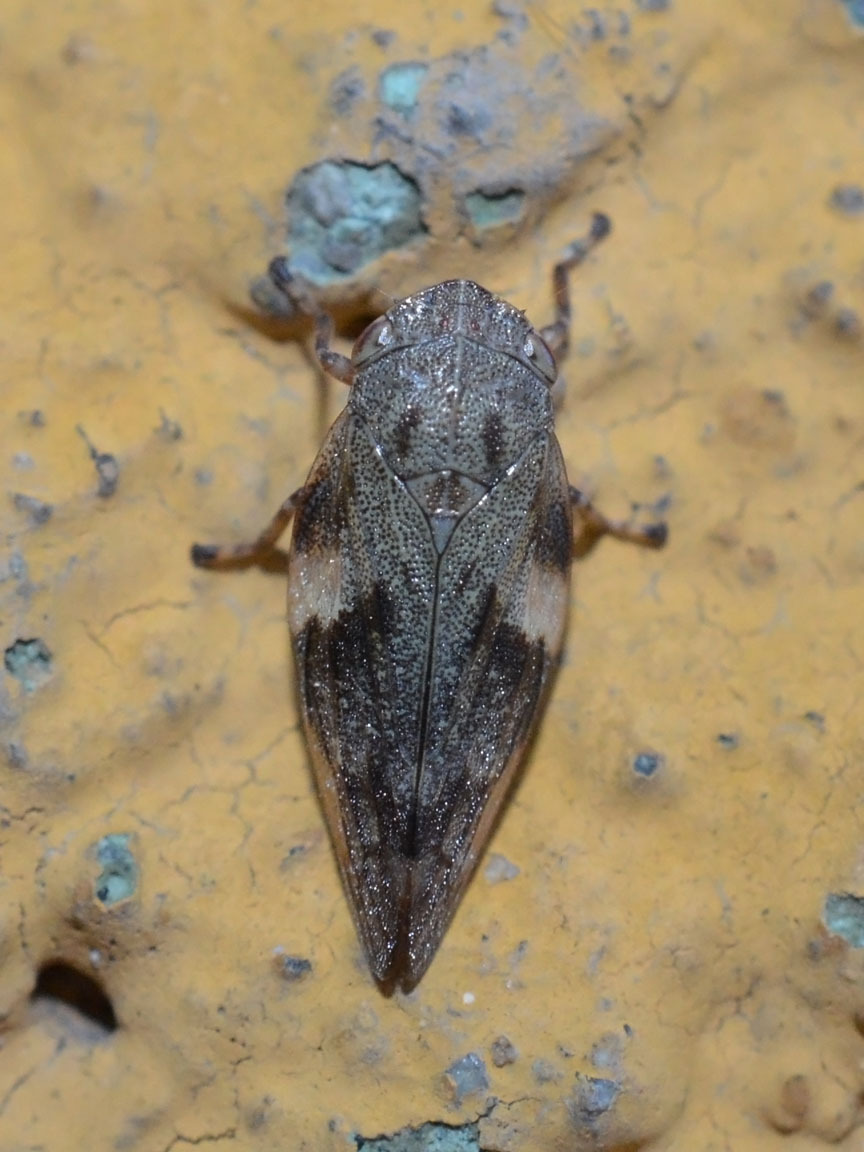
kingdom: Animalia
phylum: Arthropoda
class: Insecta
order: Hemiptera
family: Aphrophoridae
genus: Aphrophora
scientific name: Aphrophora alni
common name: European alder spittlebug
